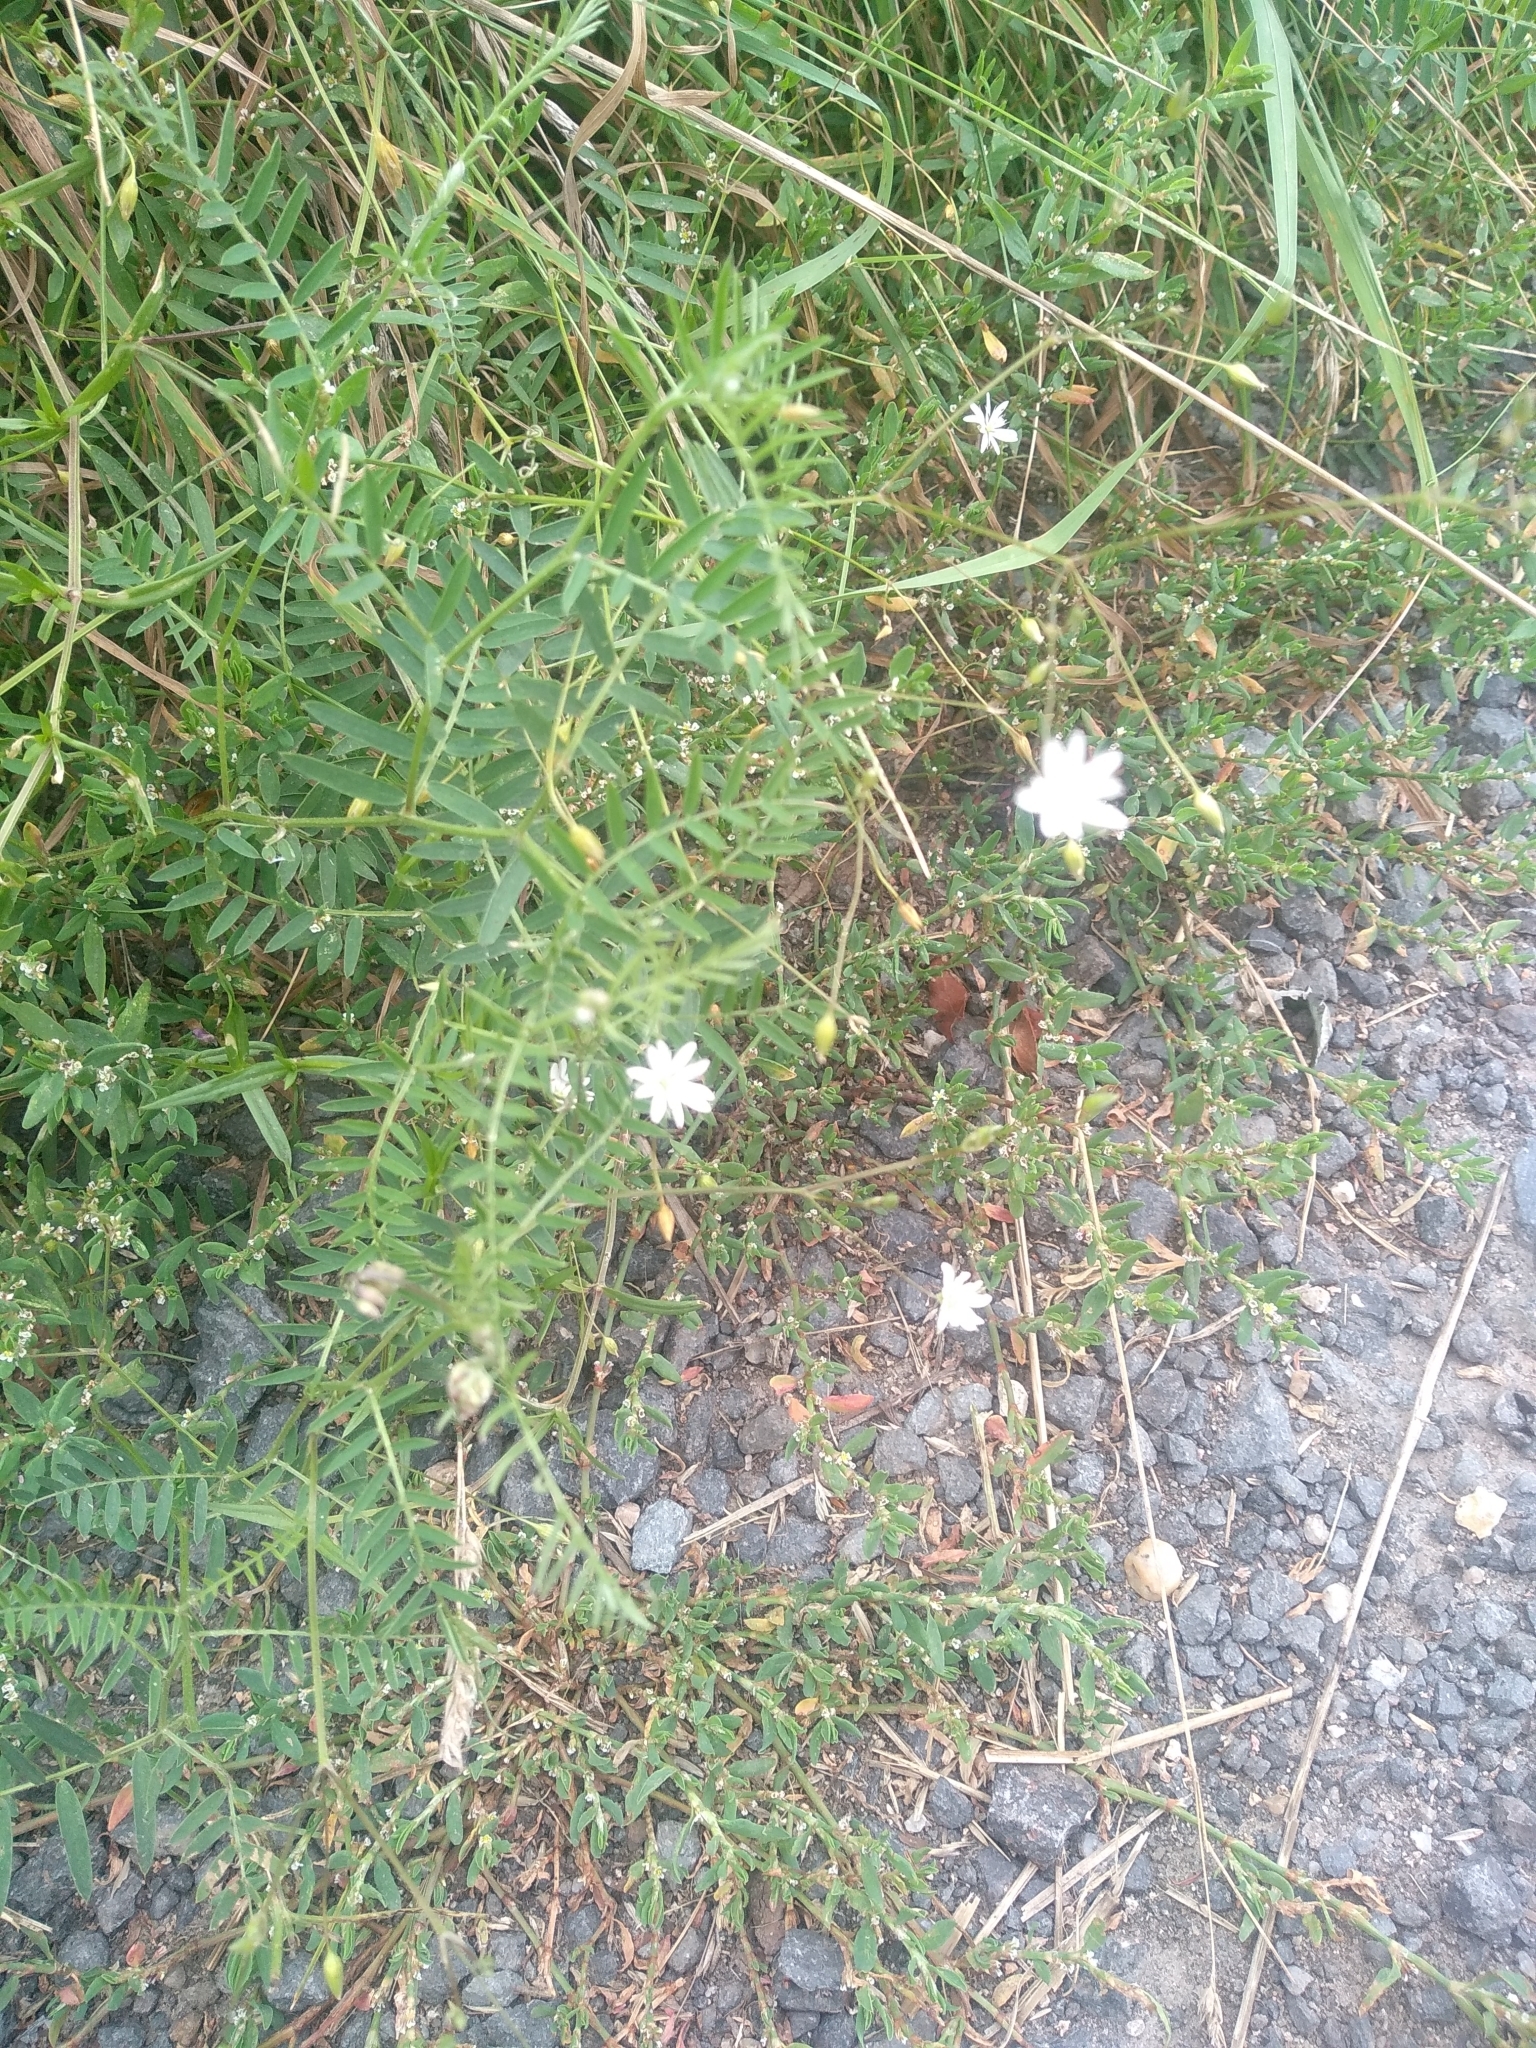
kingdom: Plantae
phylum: Tracheophyta
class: Magnoliopsida
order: Caryophyllales
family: Caryophyllaceae
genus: Stellaria
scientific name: Stellaria graminea
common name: Grass-like starwort
